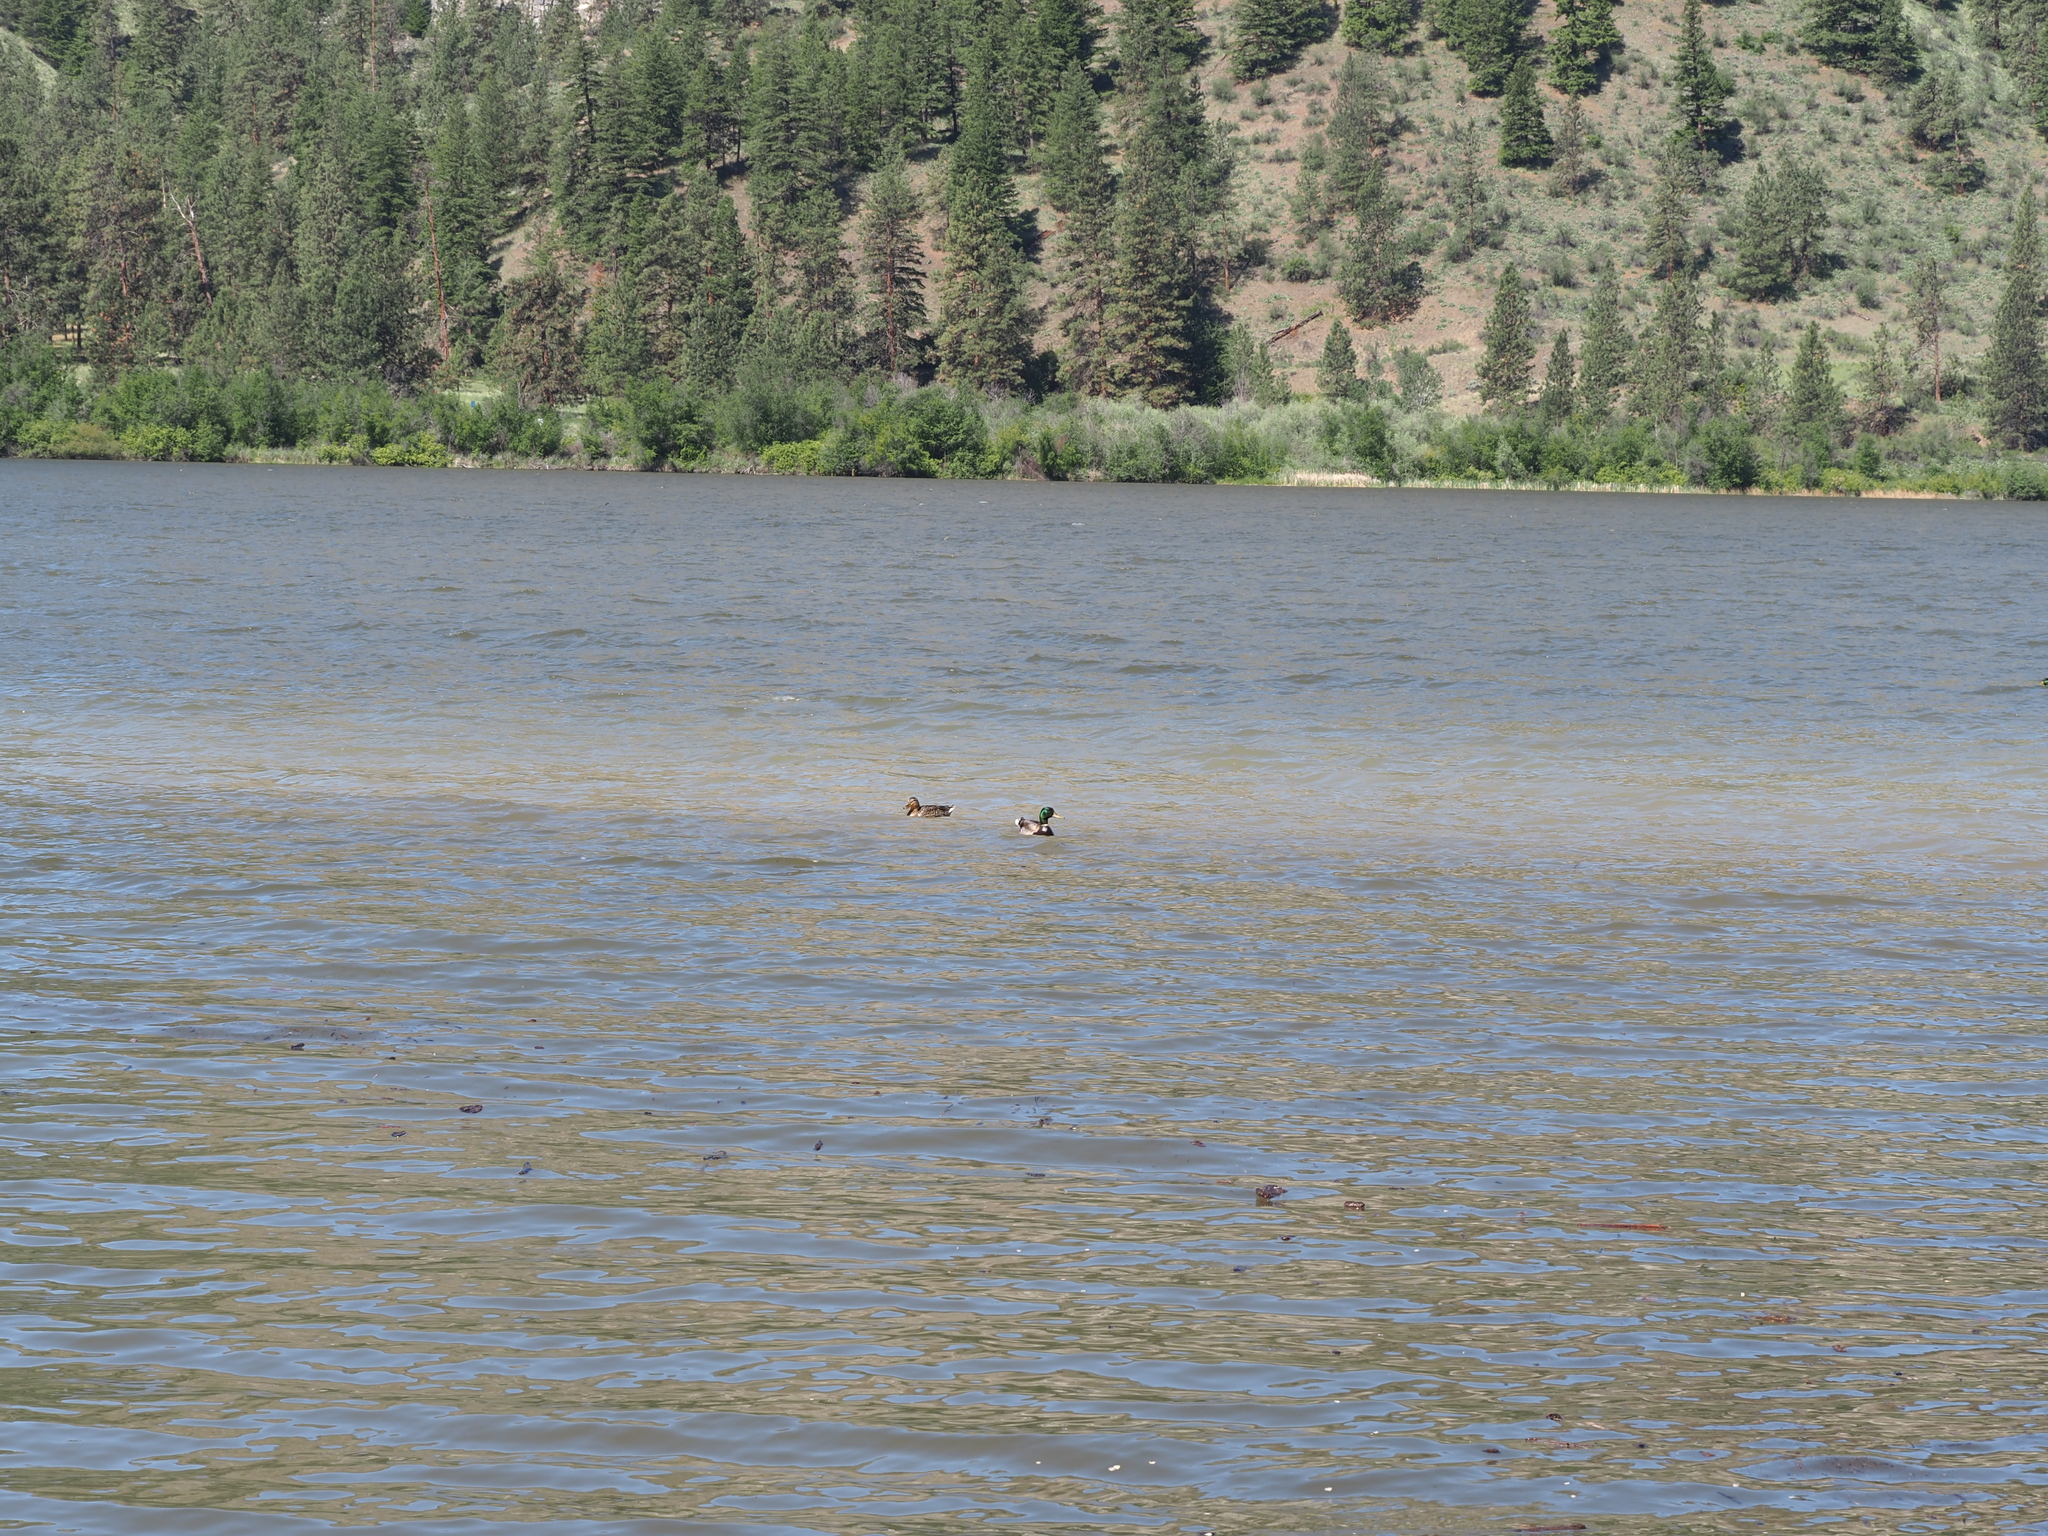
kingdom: Animalia
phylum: Chordata
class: Aves
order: Anseriformes
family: Anatidae
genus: Anas
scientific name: Anas platyrhynchos
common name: Mallard
